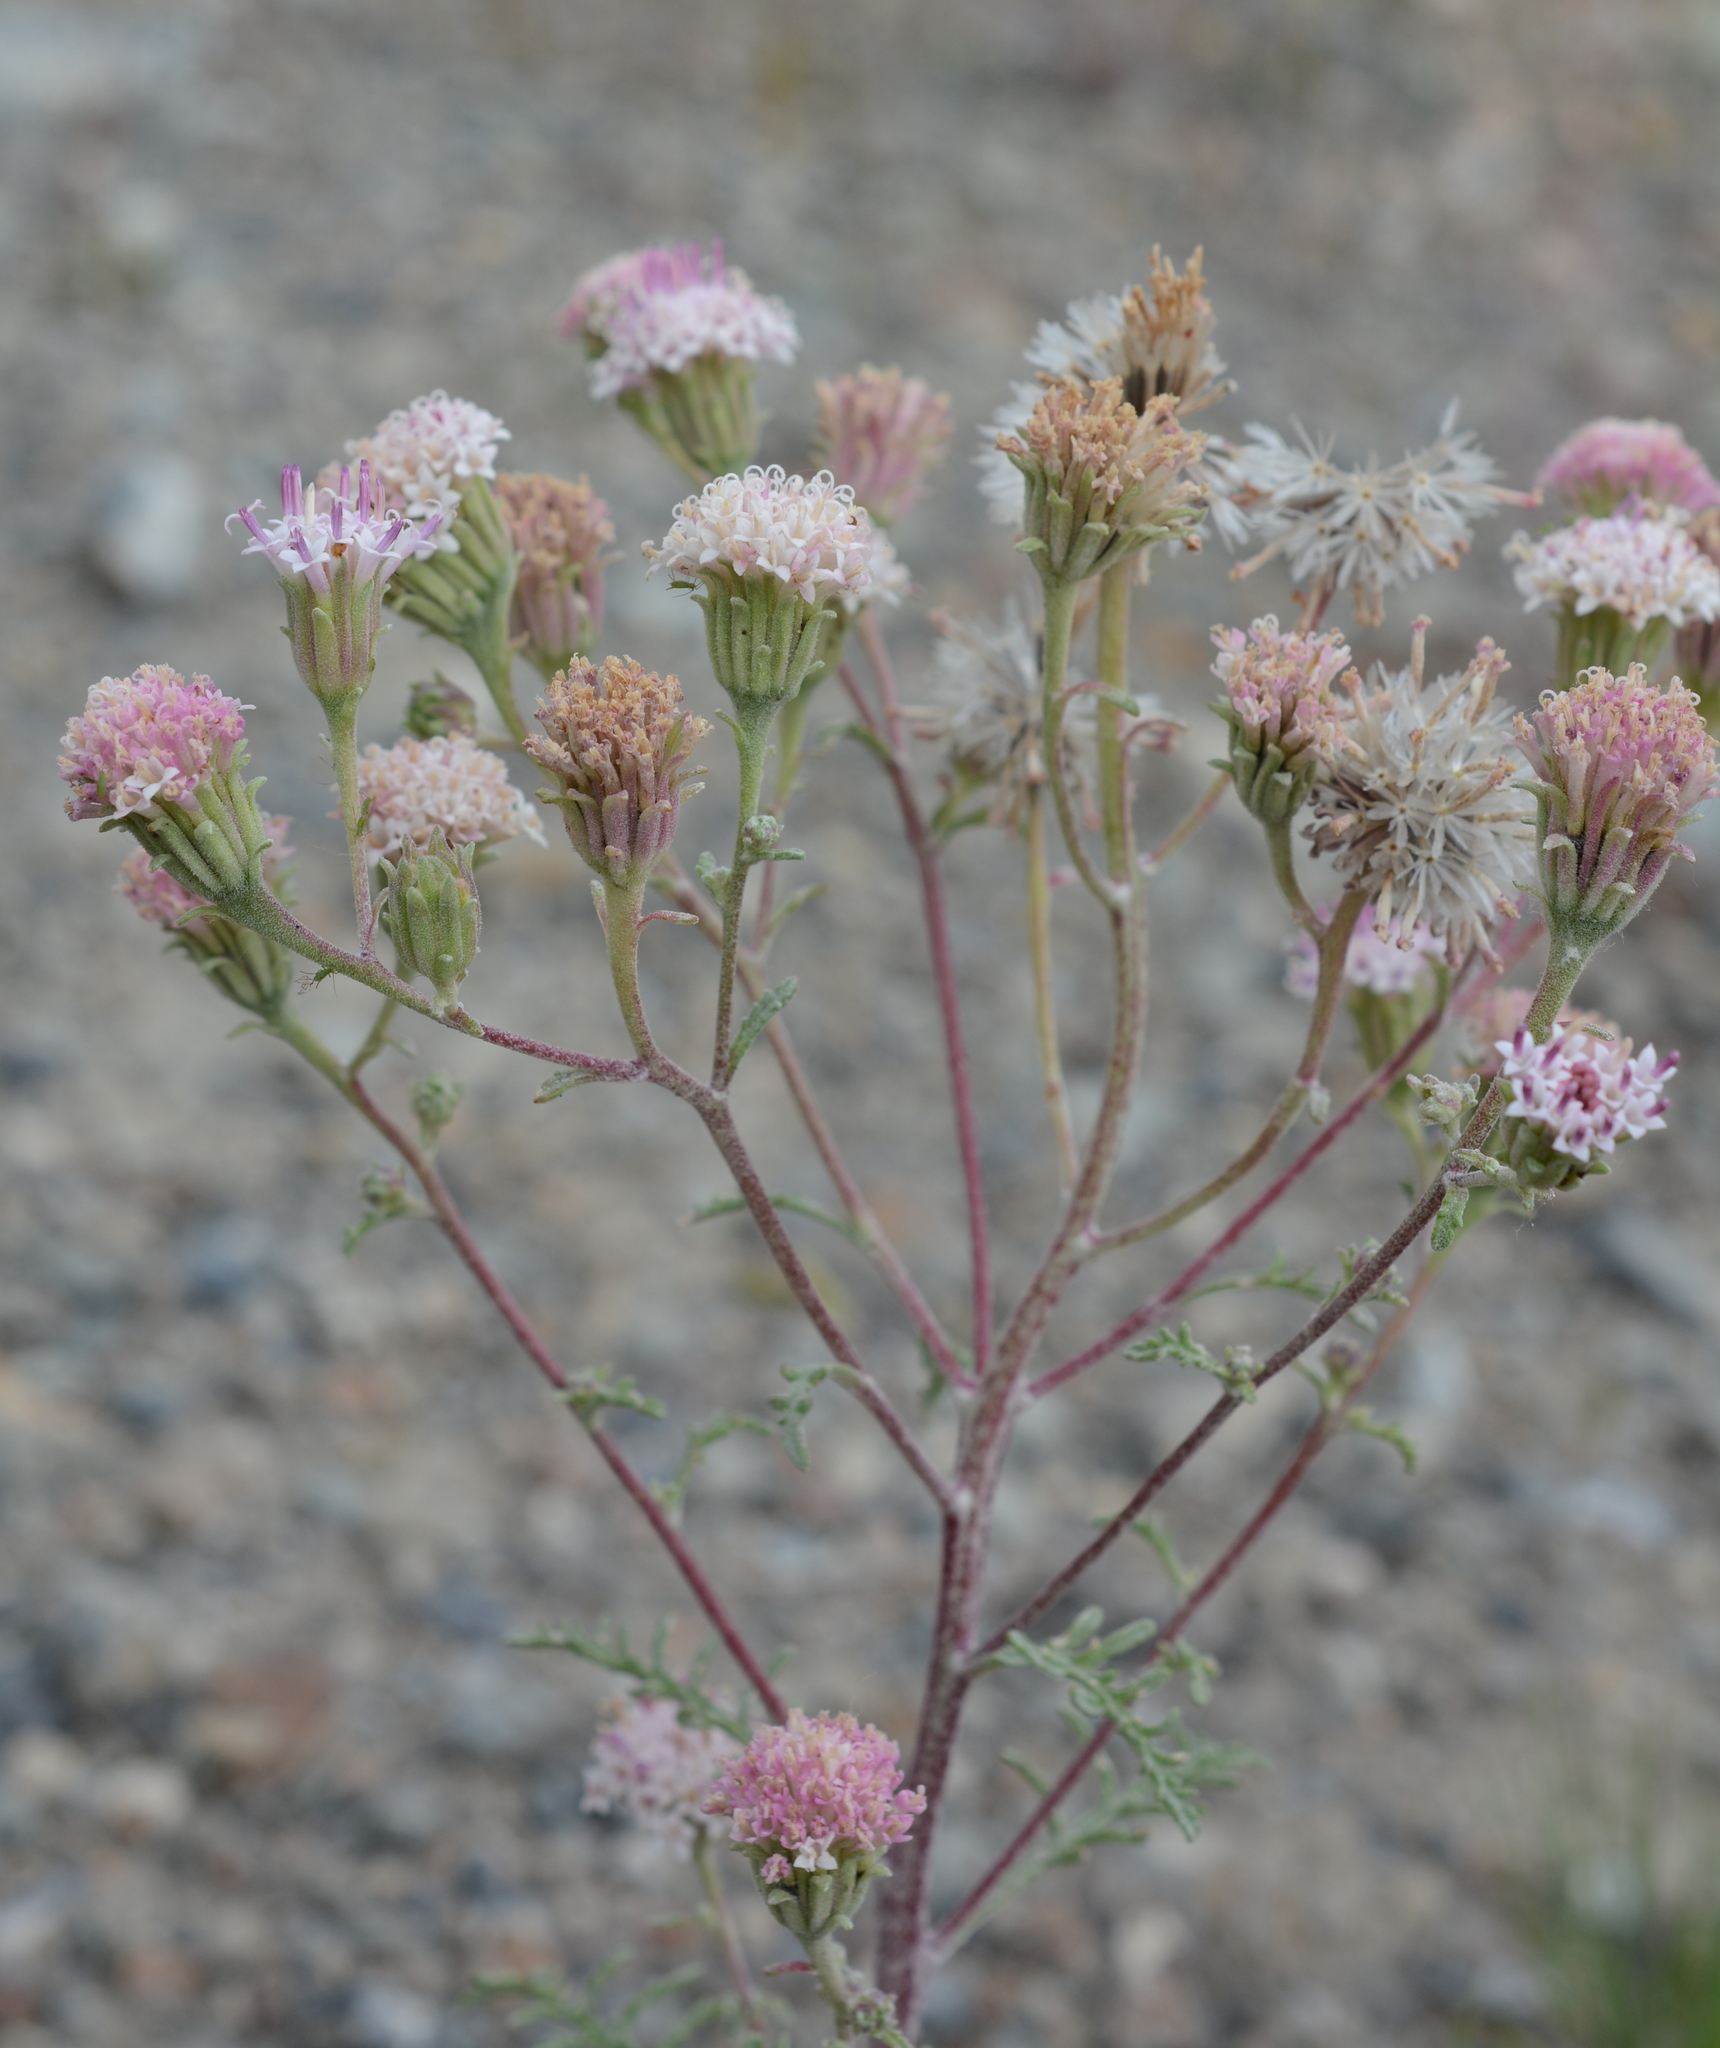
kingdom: Plantae
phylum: Tracheophyta
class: Magnoliopsida
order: Asterales
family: Asteraceae
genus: Chaenactis
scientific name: Chaenactis douglasii
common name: Hoary pincushion
